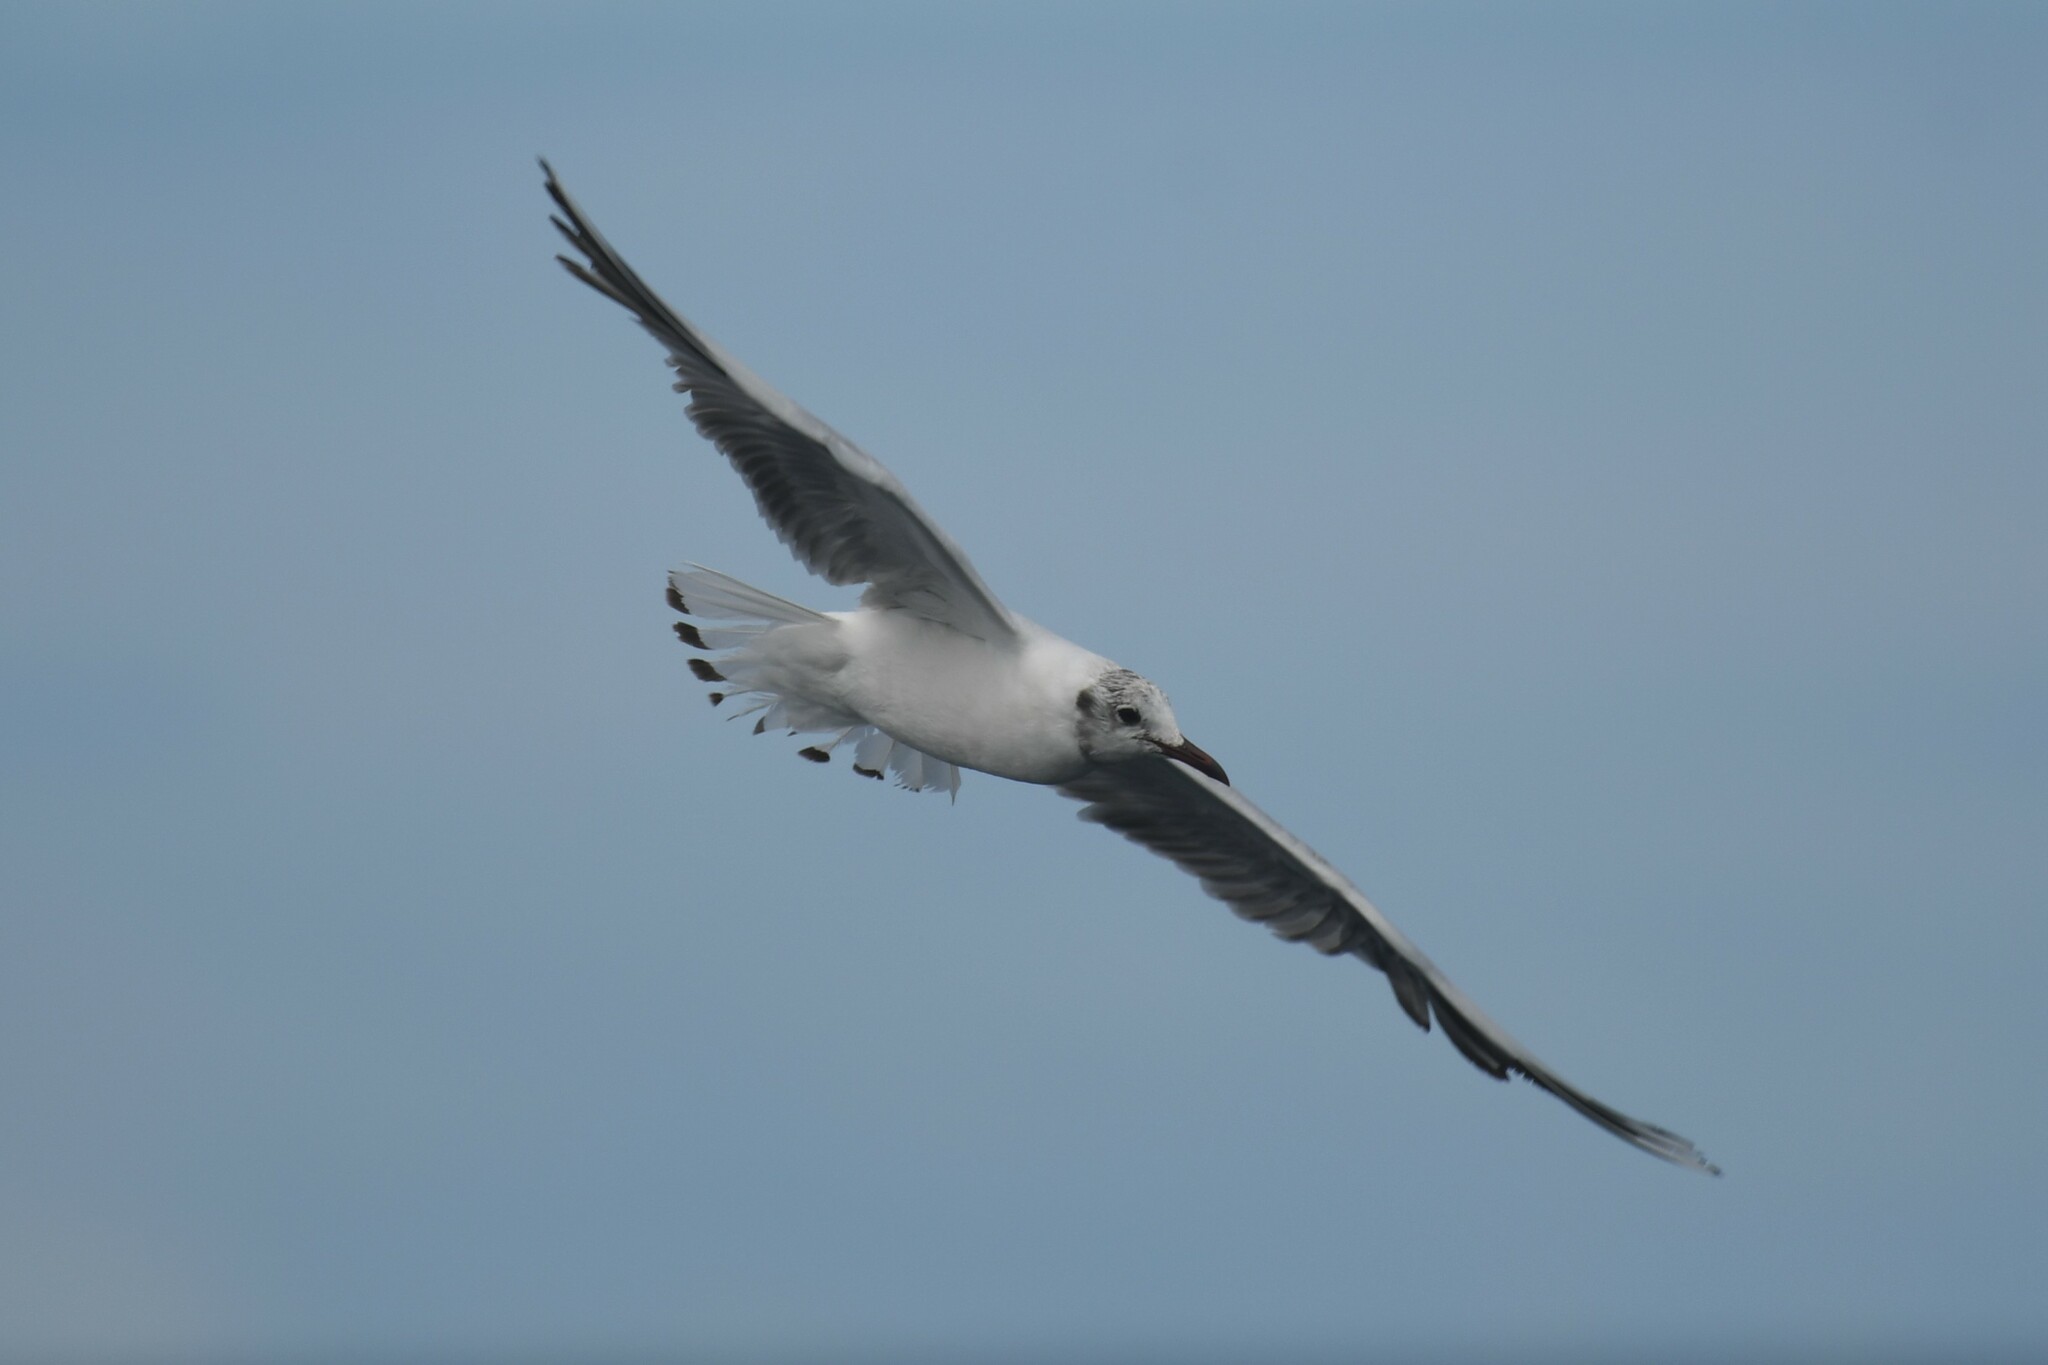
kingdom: Animalia
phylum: Chordata
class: Aves
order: Charadriiformes
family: Laridae
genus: Chroicocephalus
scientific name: Chroicocephalus maculipennis
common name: Brown-hooded gull
